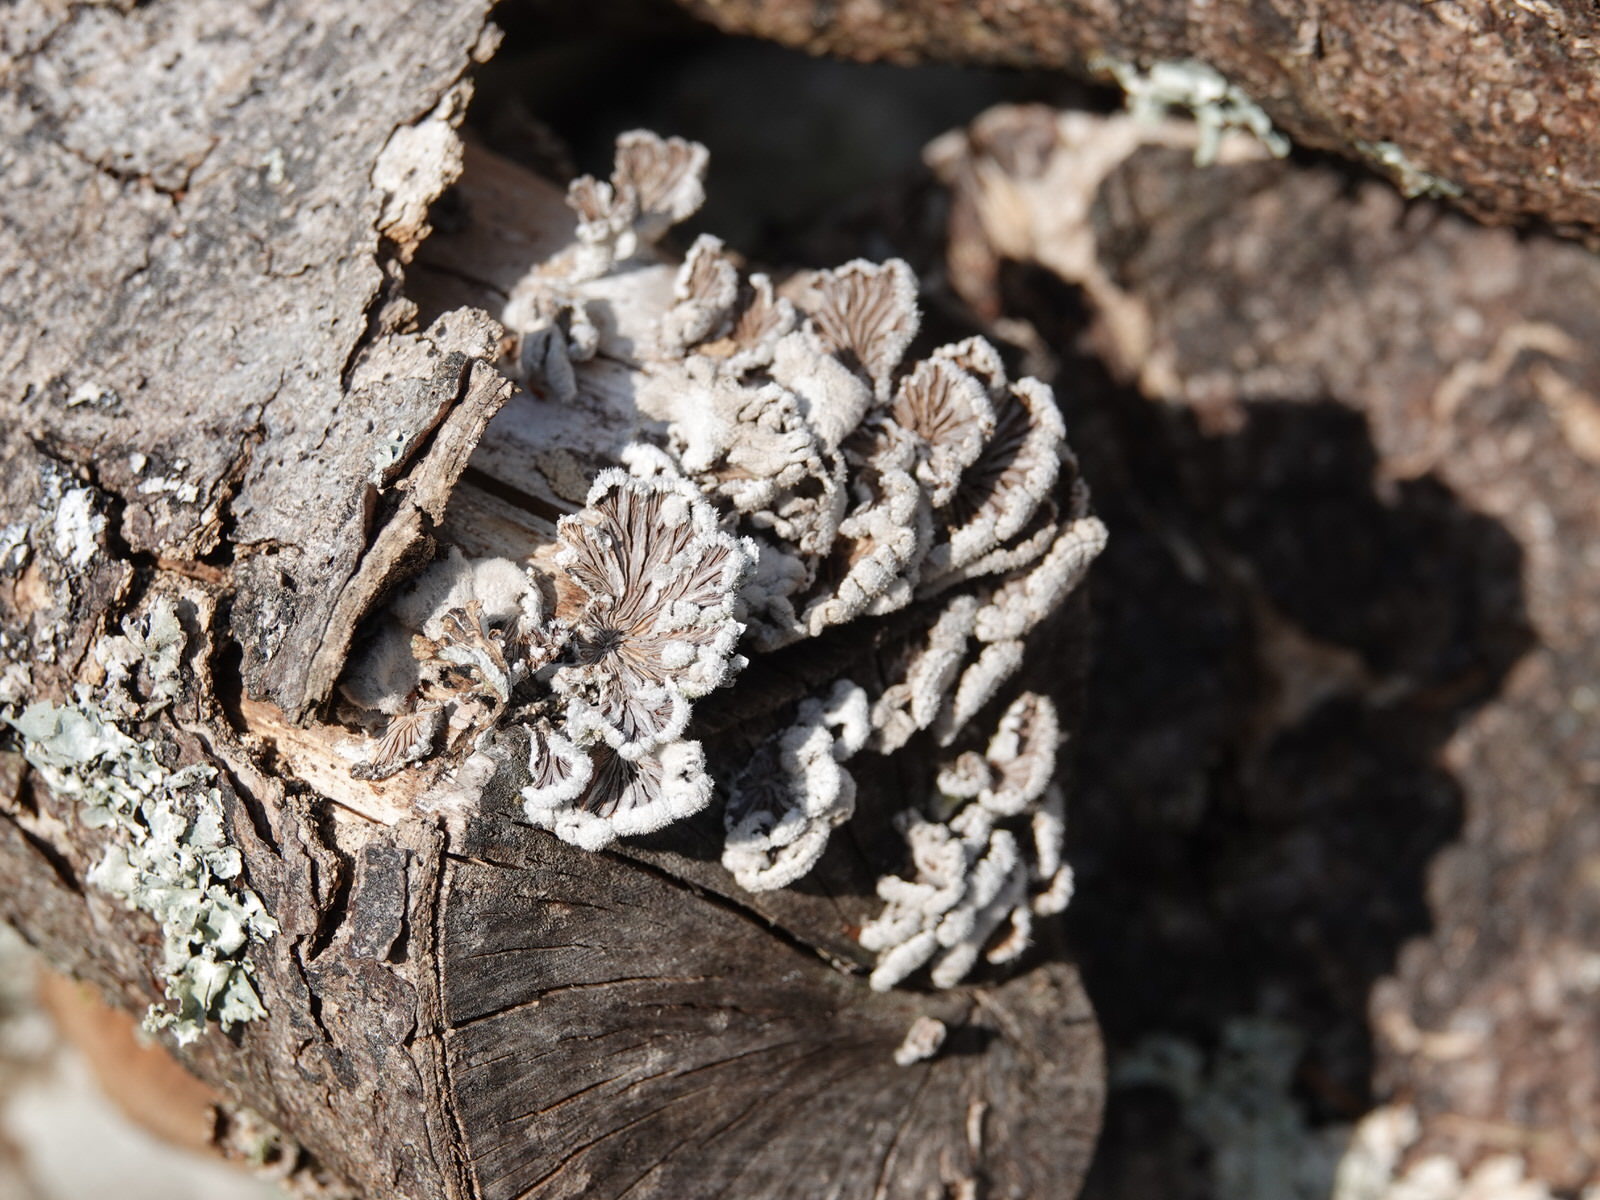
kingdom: Fungi
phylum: Basidiomycota
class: Agaricomycetes
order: Agaricales
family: Schizophyllaceae
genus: Schizophyllum
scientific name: Schizophyllum commune
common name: Common porecrust
